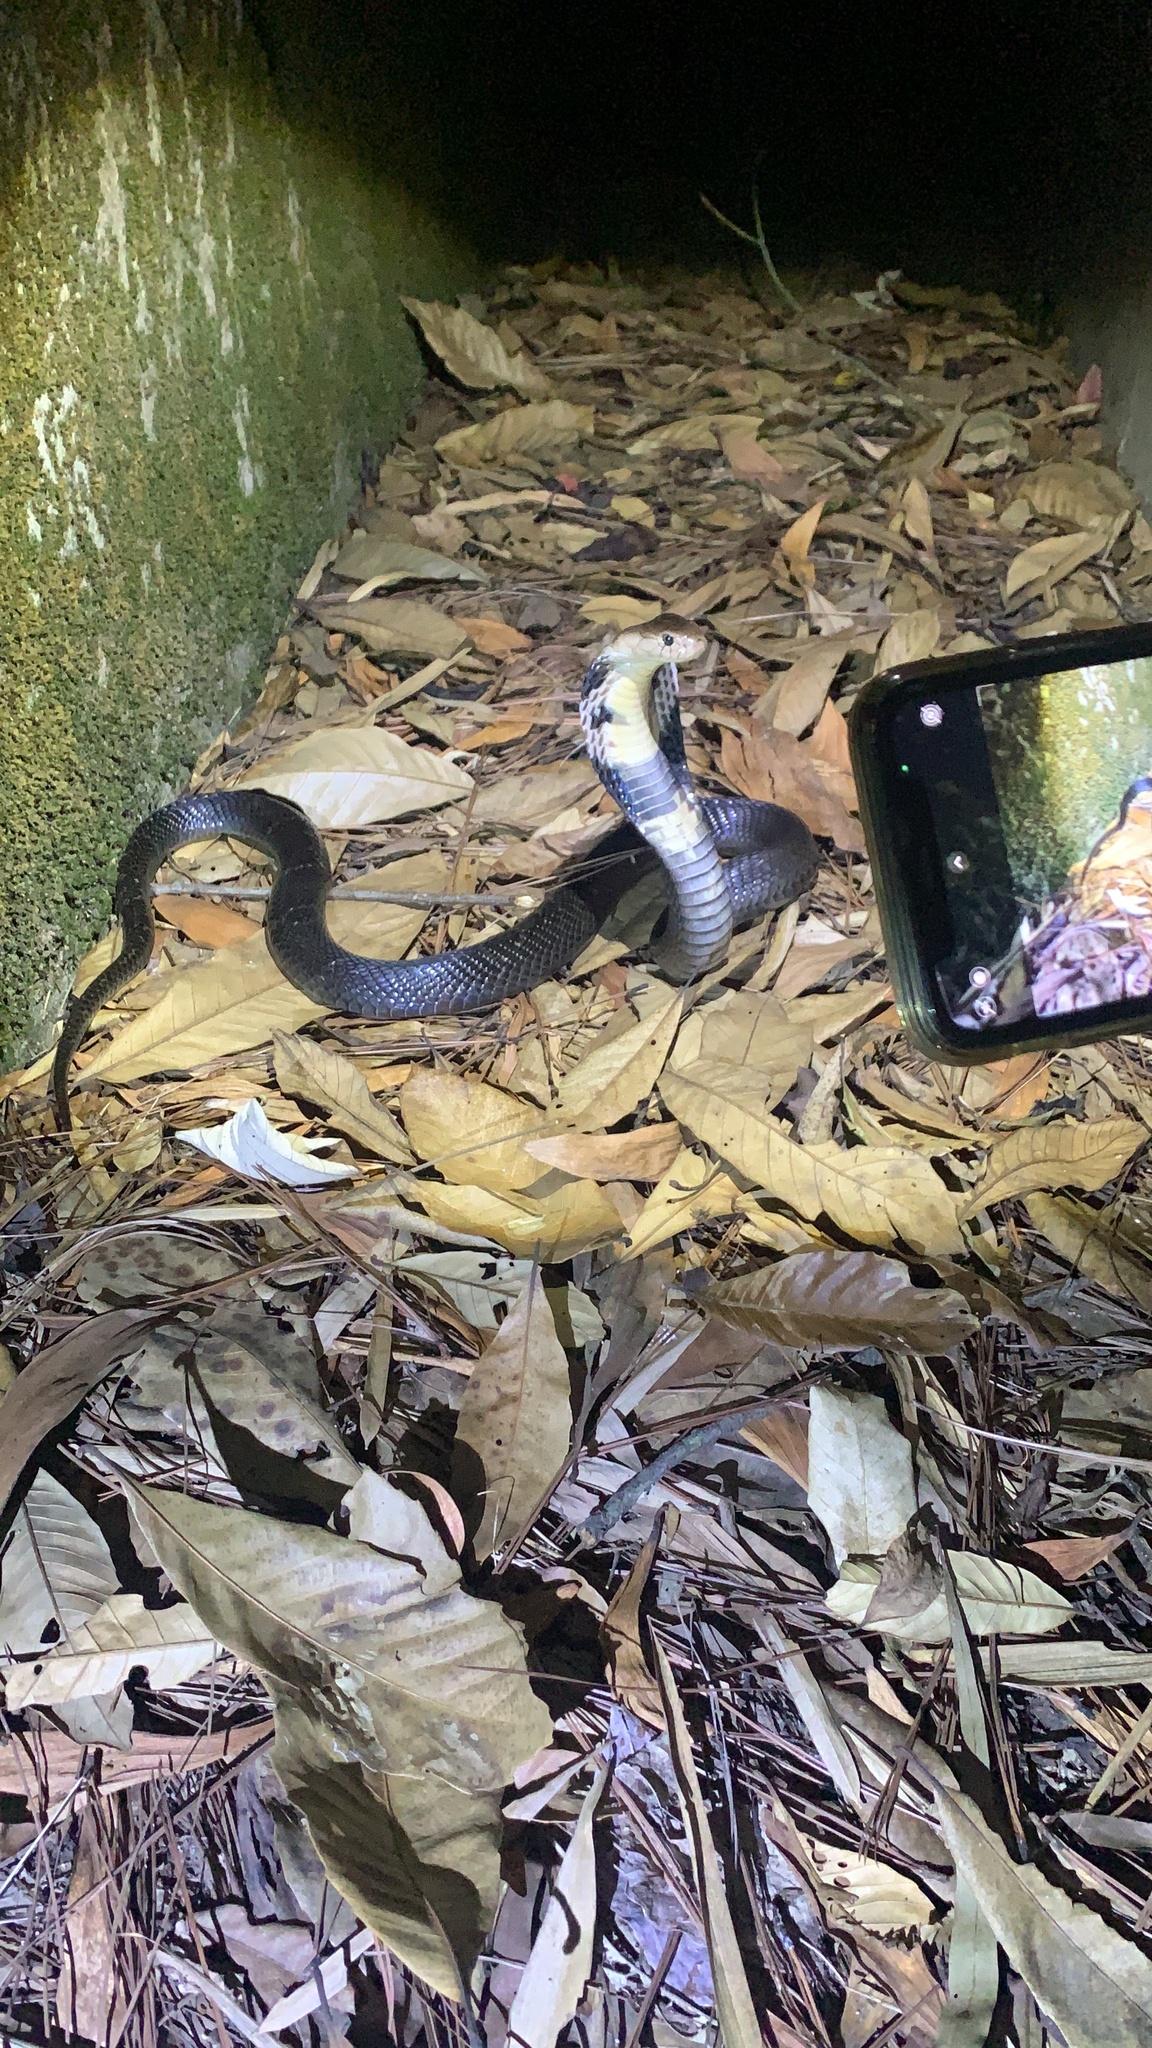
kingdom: Animalia
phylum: Chordata
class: Squamata
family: Elapidae
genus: Naja
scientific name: Naja atra
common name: Chinese cobra
